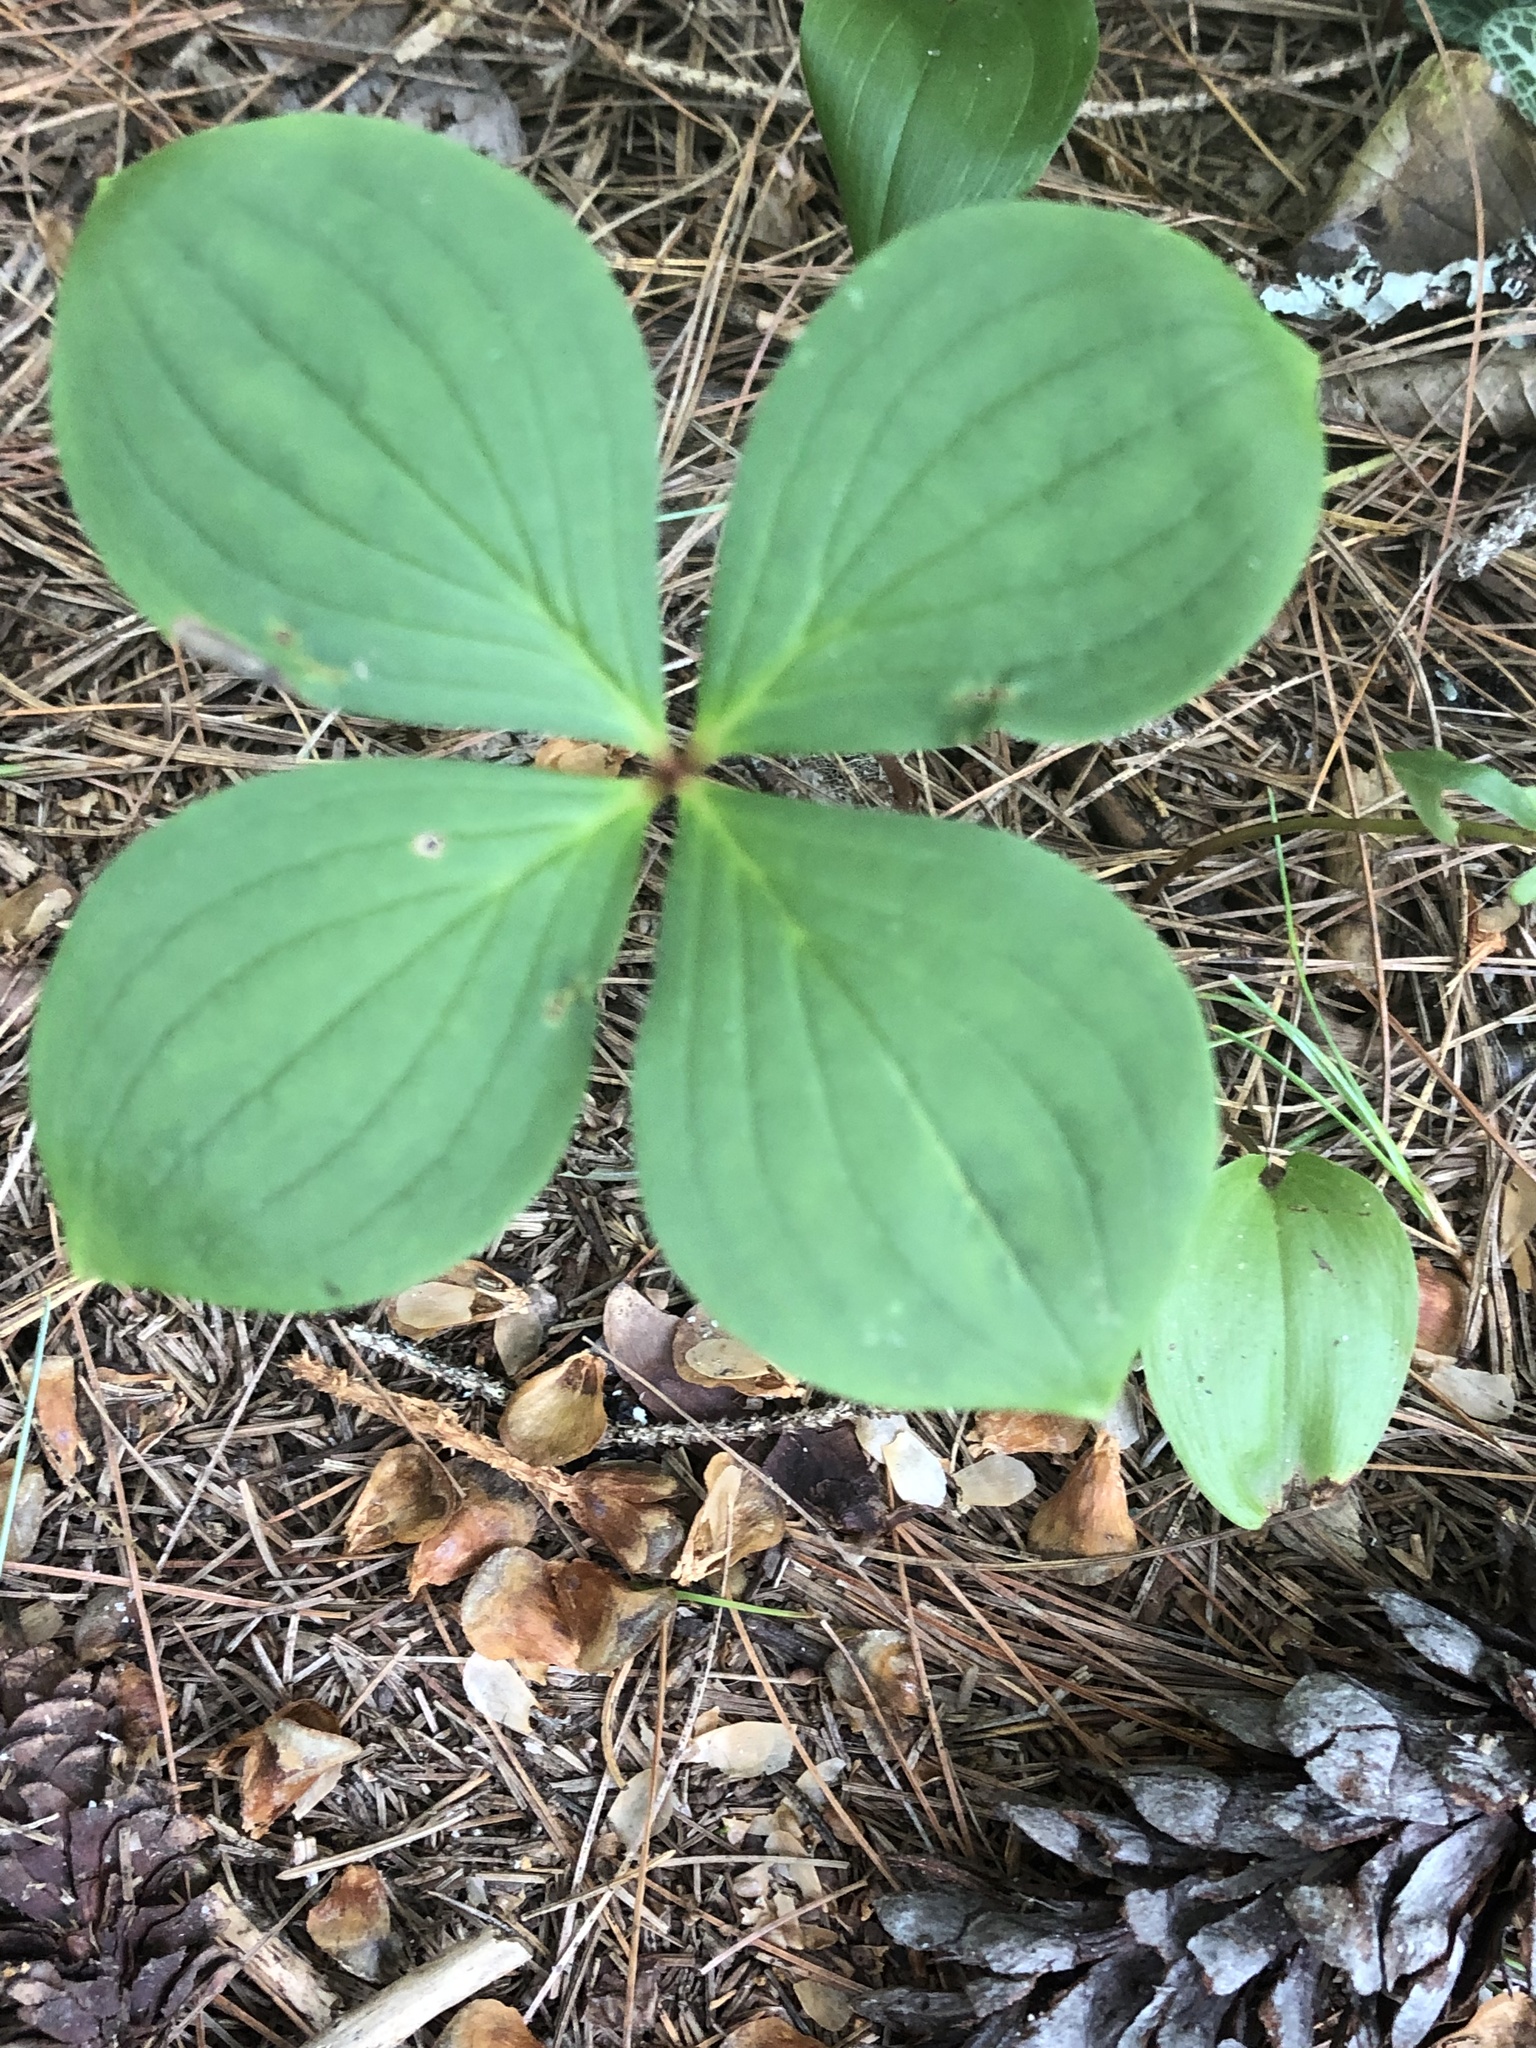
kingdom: Plantae
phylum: Tracheophyta
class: Magnoliopsida
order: Cornales
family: Cornaceae
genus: Cornus
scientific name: Cornus canadensis
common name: Creeping dogwood
